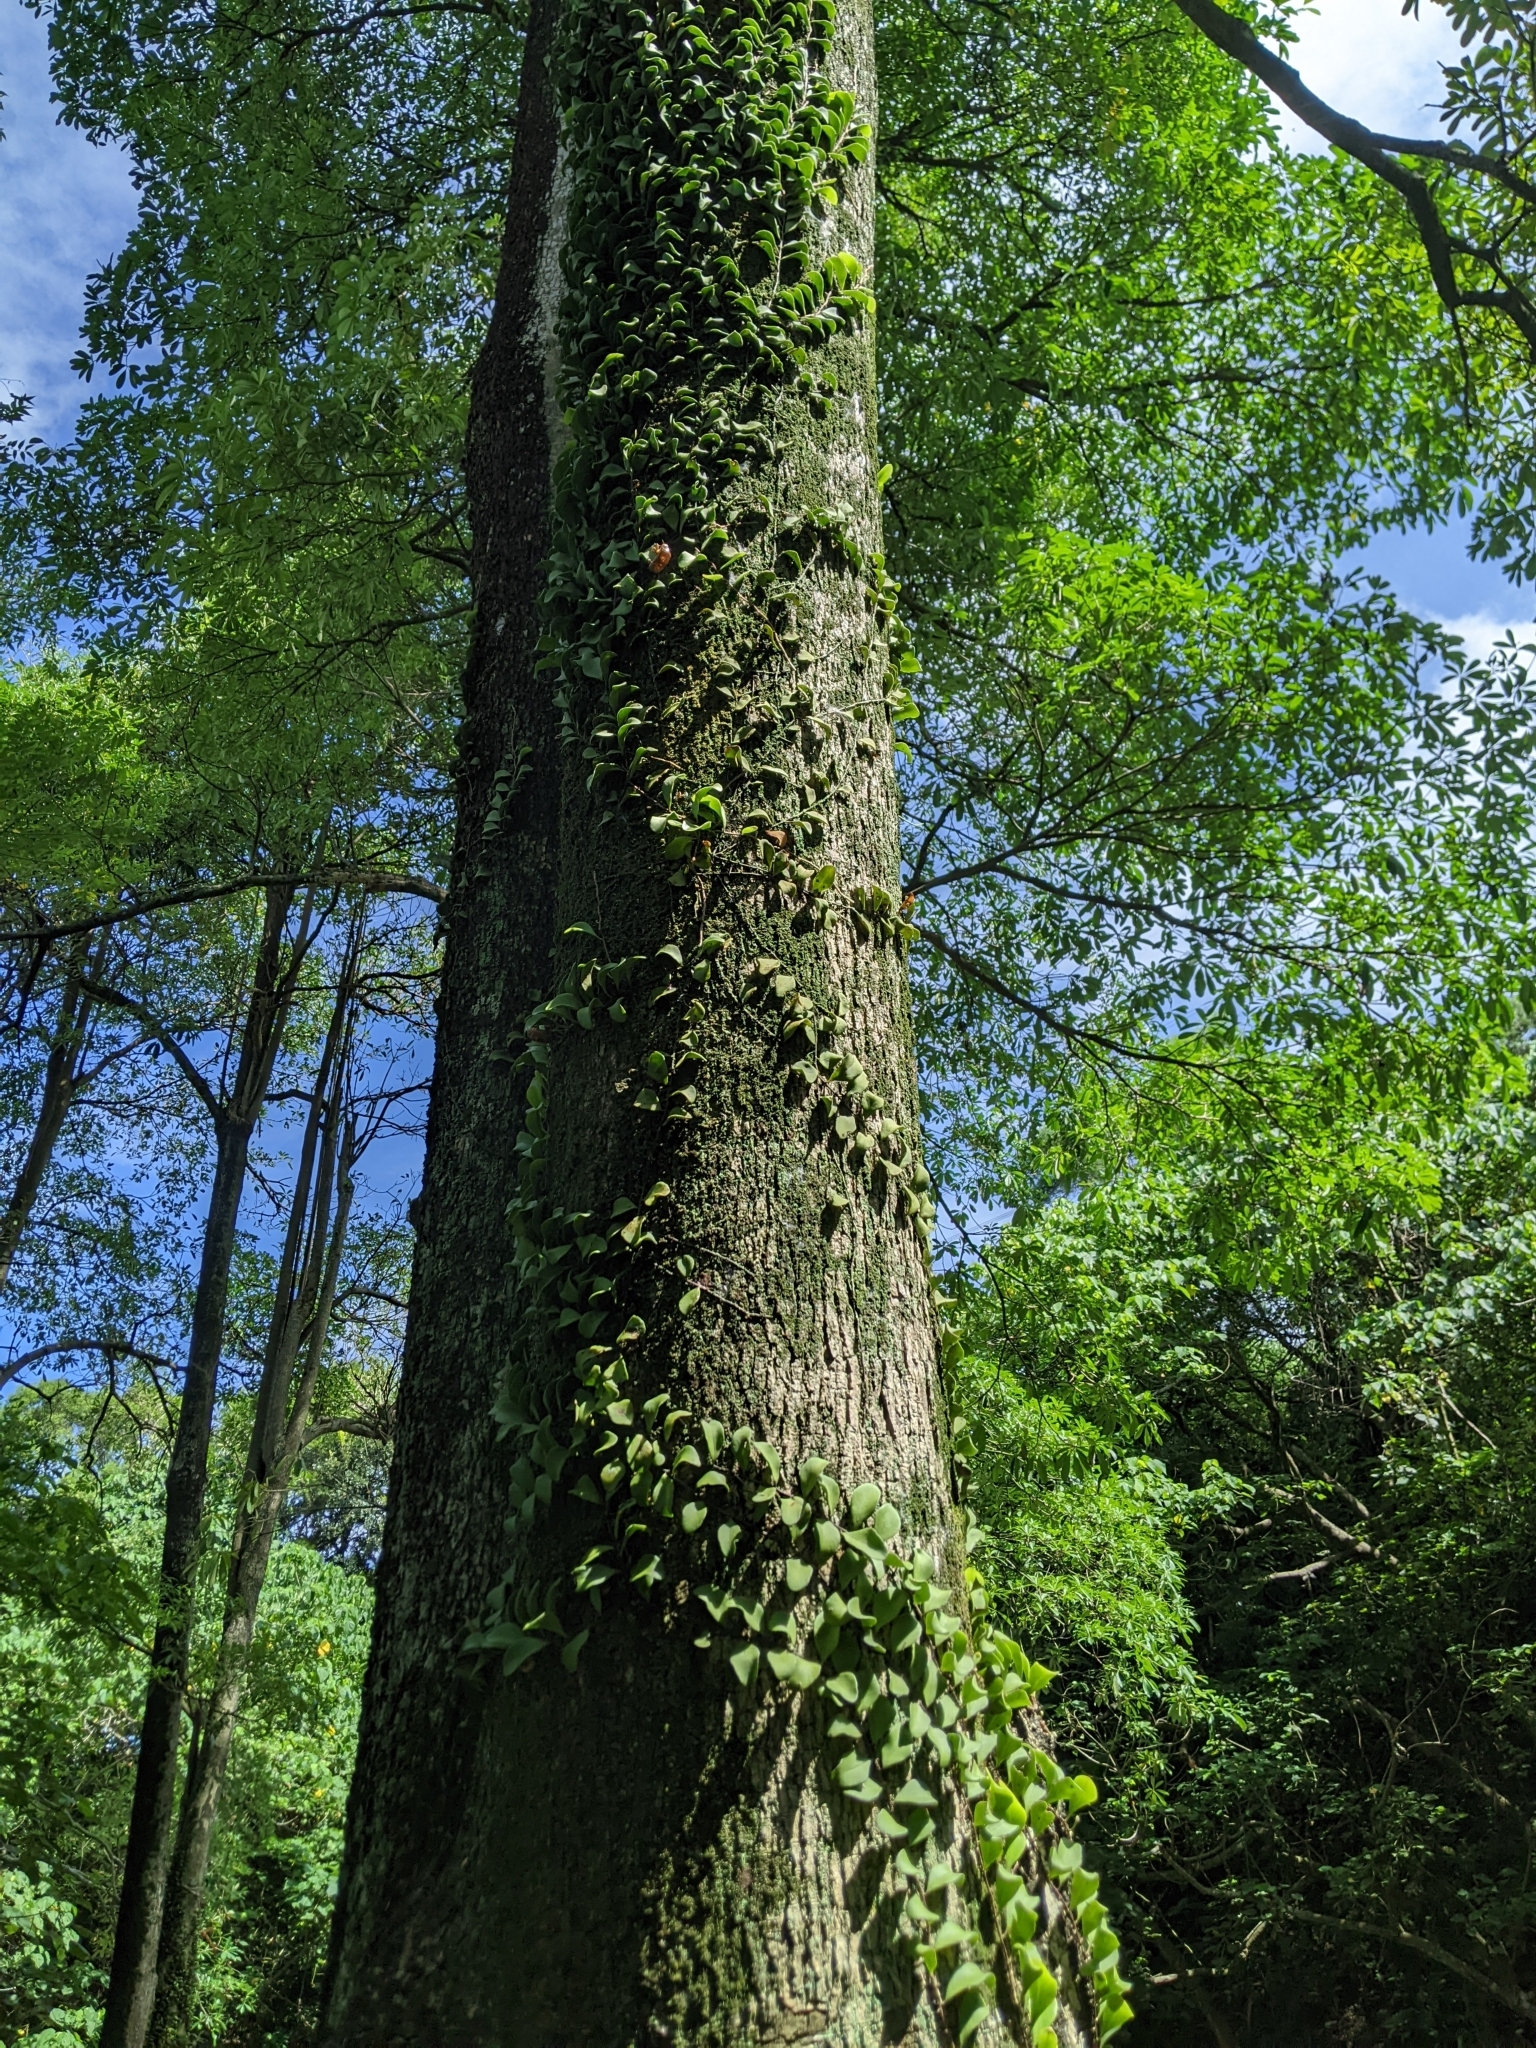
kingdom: Plantae
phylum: Tracheophyta
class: Polypodiopsida
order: Polypodiales
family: Polypodiaceae
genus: Pyrrosia
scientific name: Pyrrosia lanceolata
